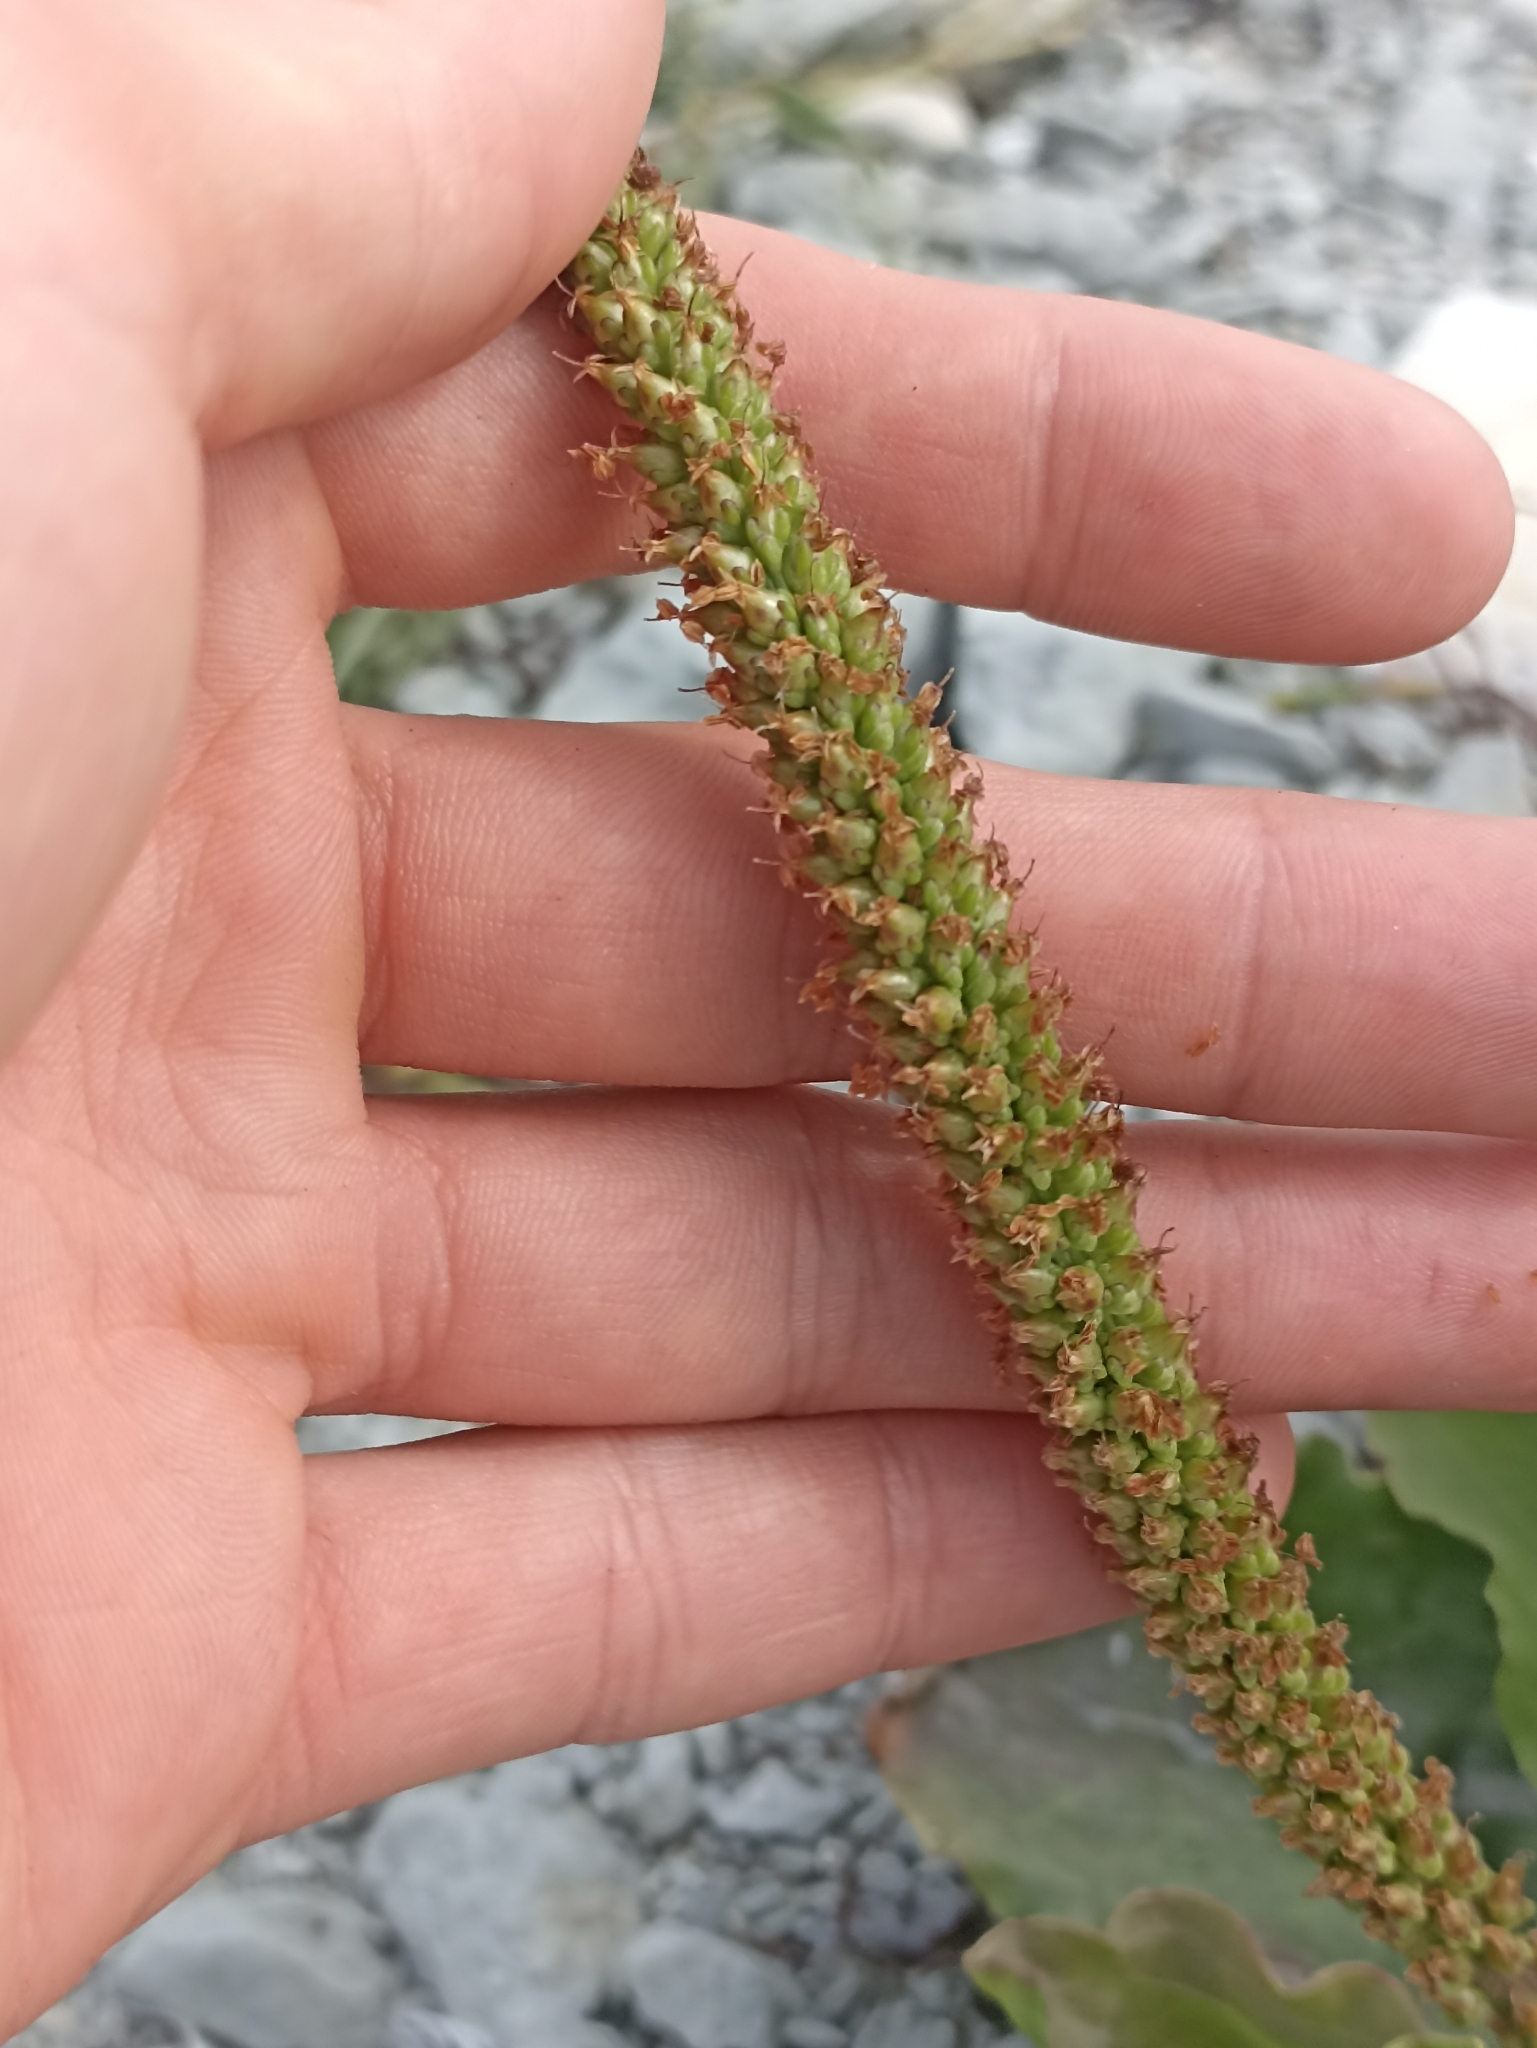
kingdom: Plantae
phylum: Tracheophyta
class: Magnoliopsida
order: Lamiales
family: Plantaginaceae
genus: Plantago
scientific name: Plantago major
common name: Common plantain
